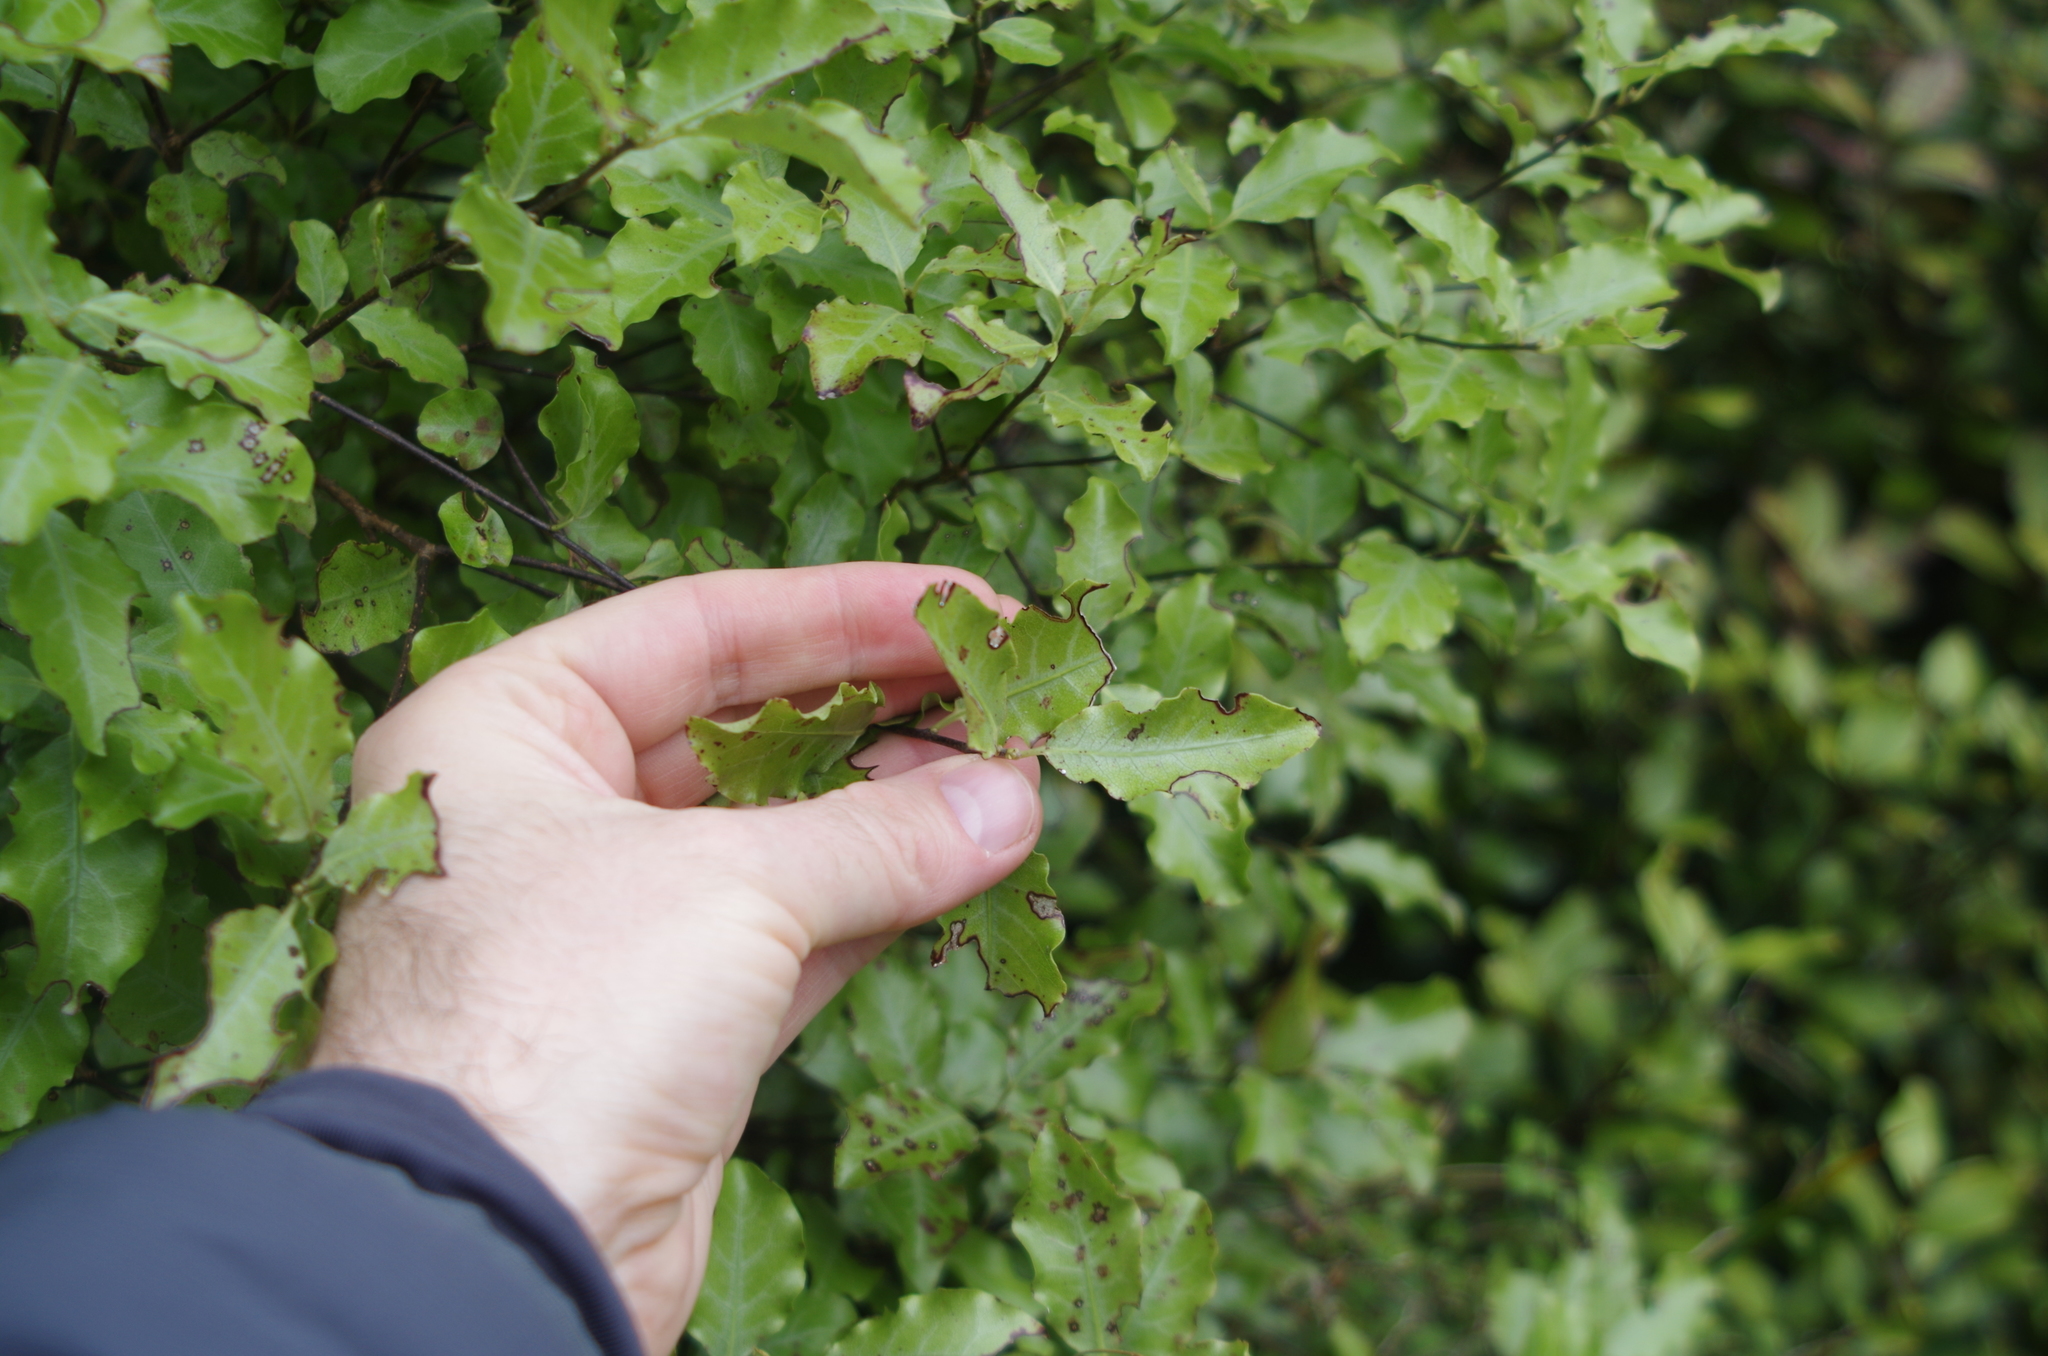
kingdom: Plantae
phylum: Tracheophyta
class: Magnoliopsida
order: Apiales
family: Pittosporaceae
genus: Pittosporum
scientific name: Pittosporum tenuifolium
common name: Kohuhu
